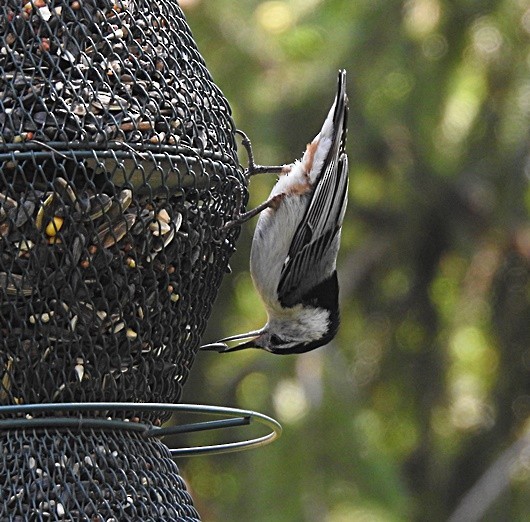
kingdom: Animalia
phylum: Chordata
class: Aves
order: Passeriformes
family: Sittidae
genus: Sitta
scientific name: Sitta carolinensis
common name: White-breasted nuthatch
